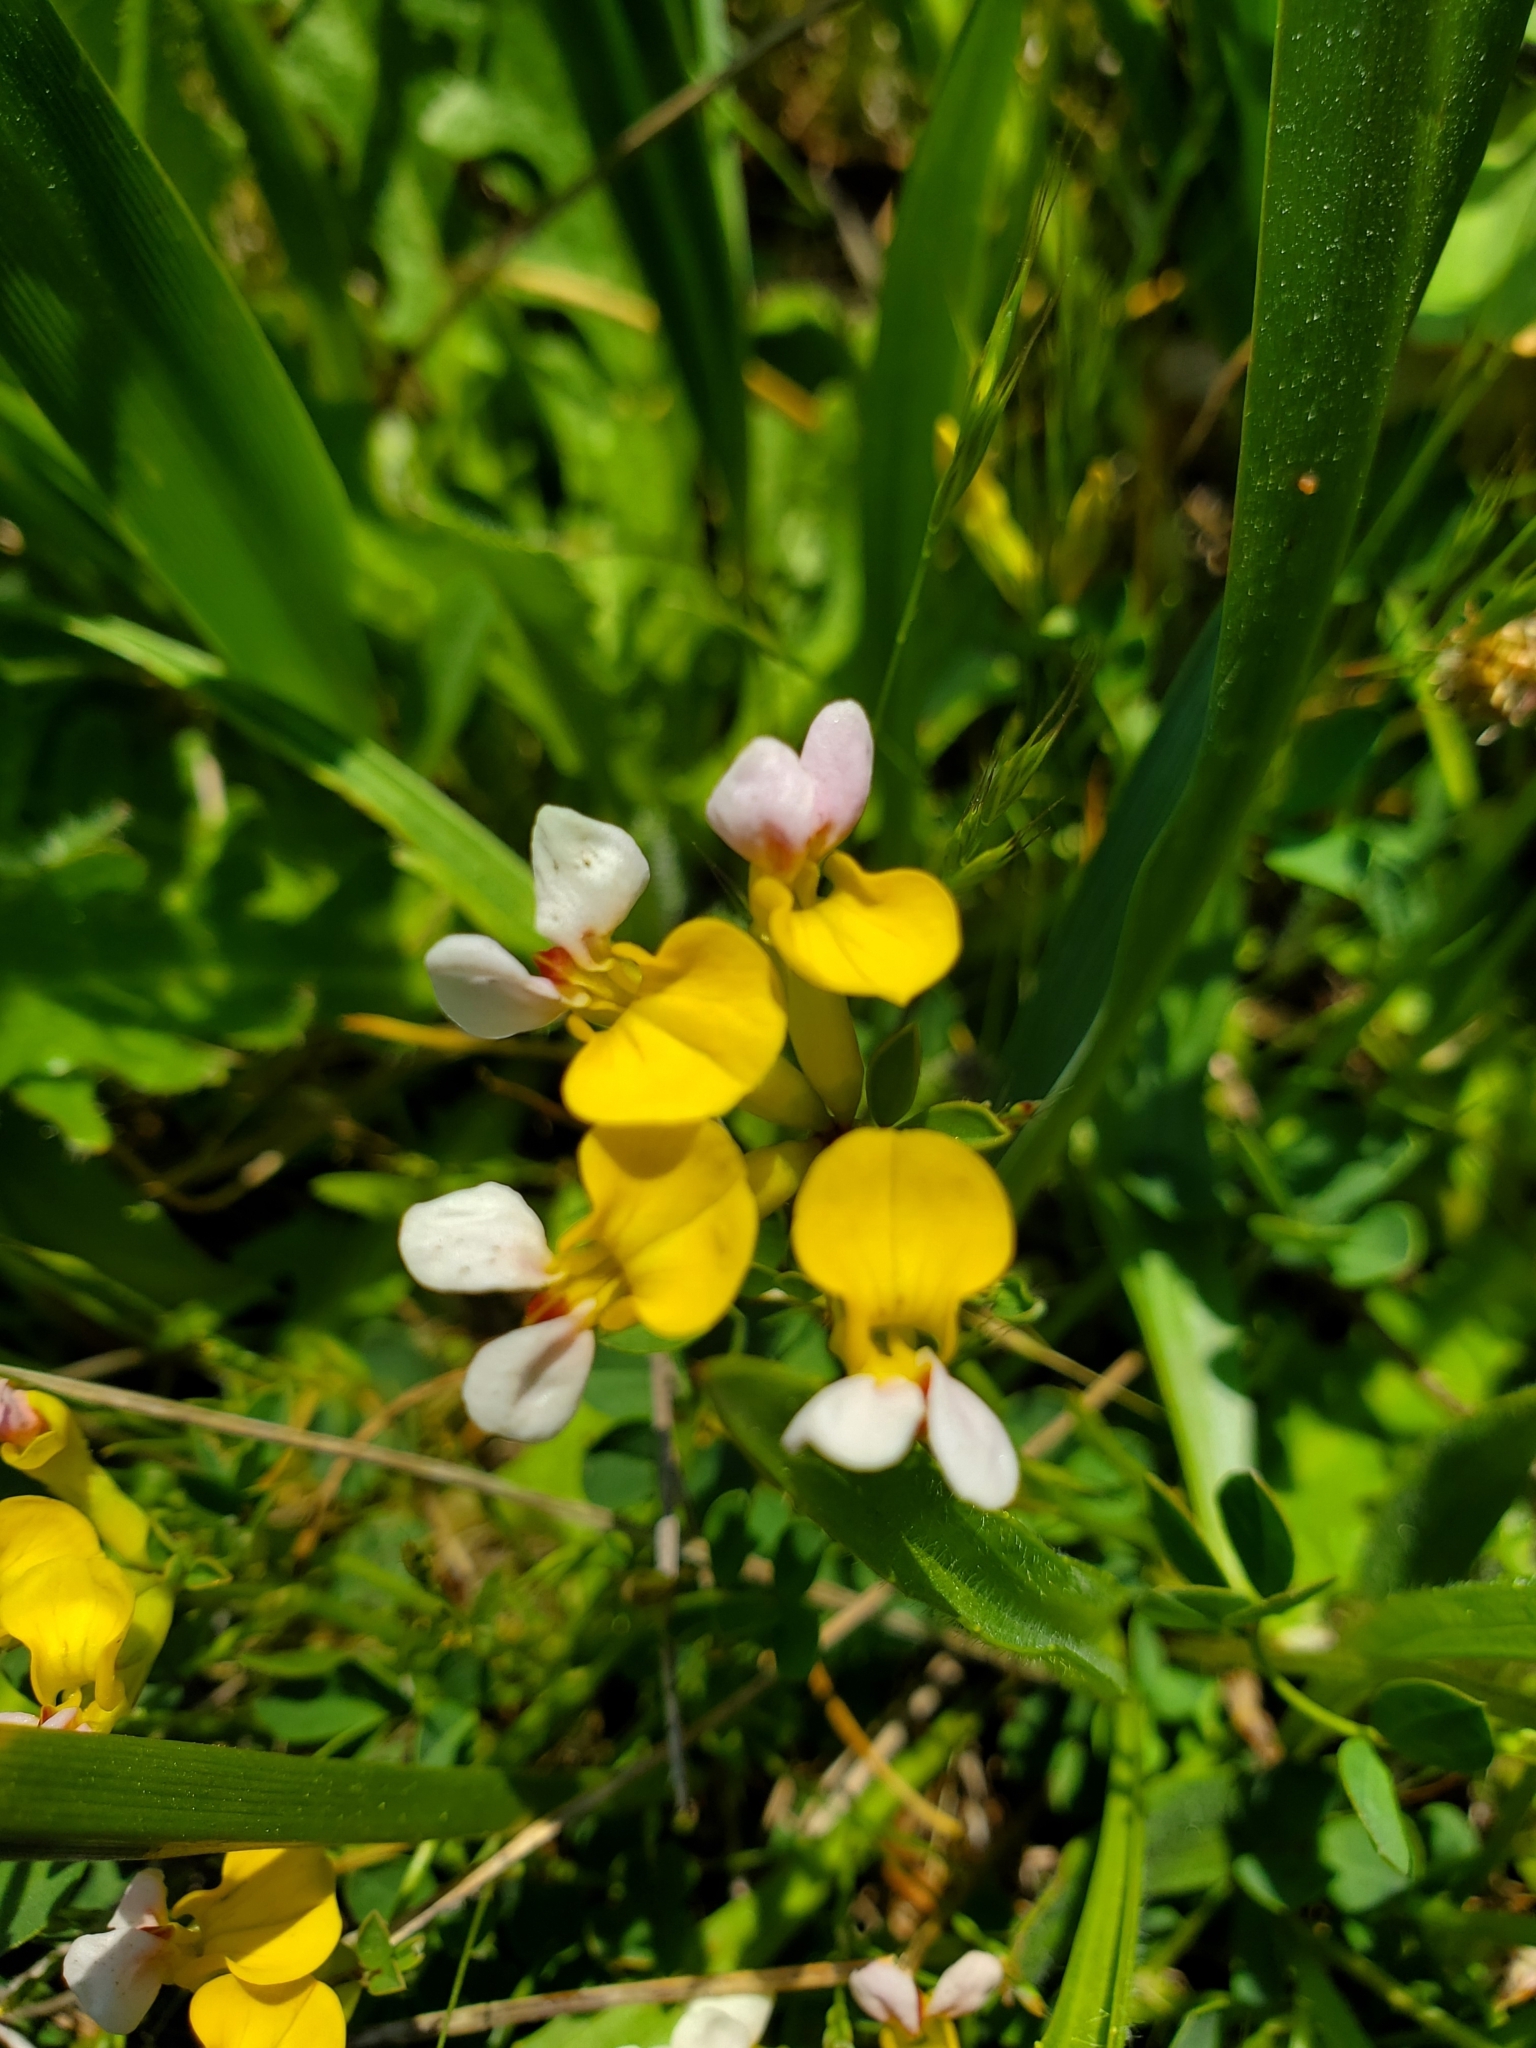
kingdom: Plantae
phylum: Tracheophyta
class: Magnoliopsida
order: Fabales
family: Fabaceae
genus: Hosackia
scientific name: Hosackia gracilis
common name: Seaside bird's-foot lotus
